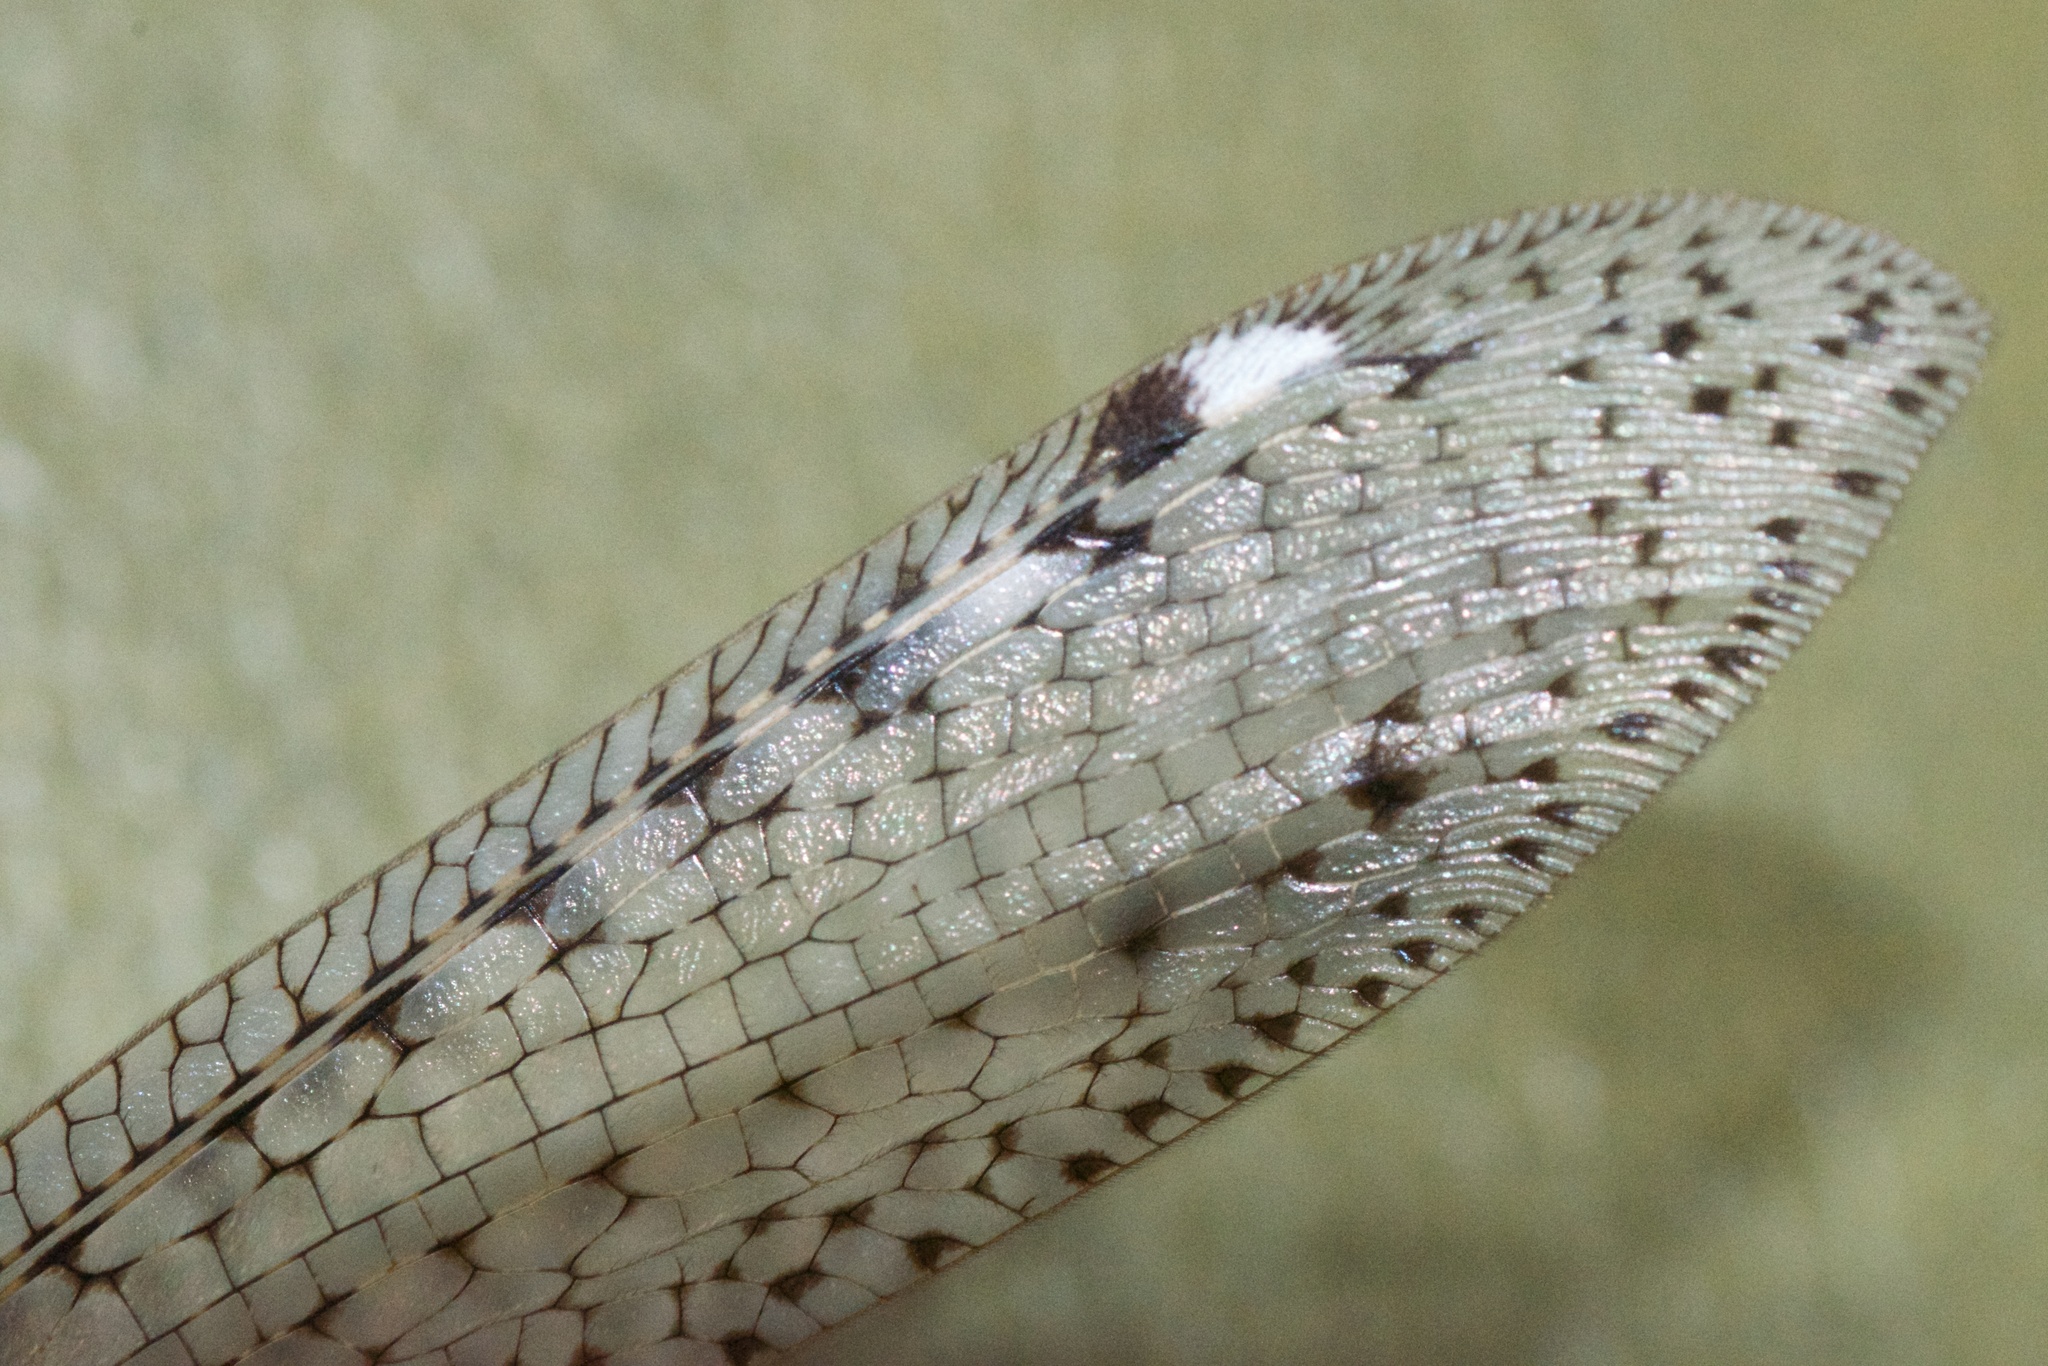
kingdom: Animalia
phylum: Arthropoda
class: Insecta
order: Neuroptera
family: Myrmeleontidae
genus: Weeleus
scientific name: Weeleus acutus
